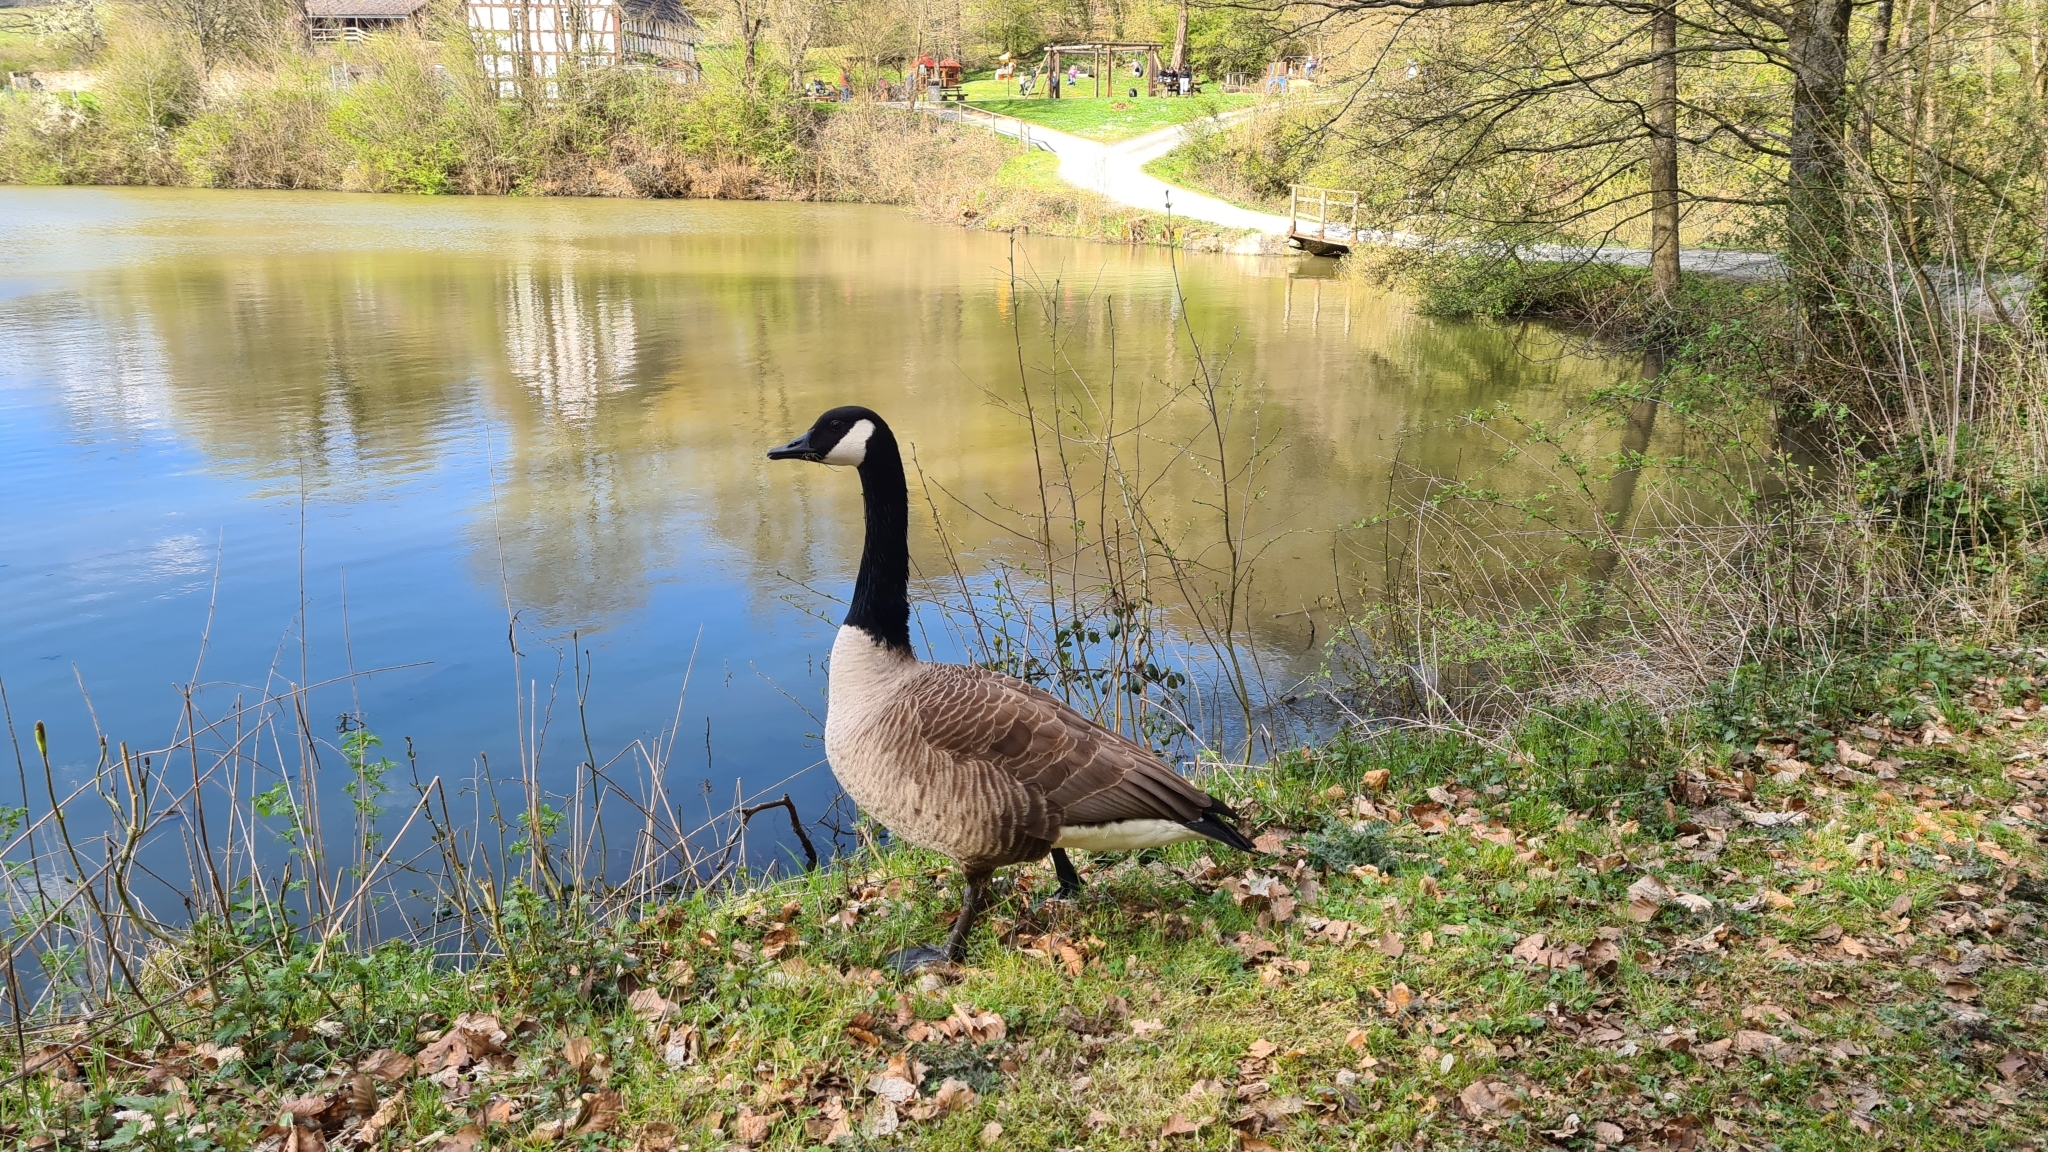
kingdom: Animalia
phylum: Chordata
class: Aves
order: Anseriformes
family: Anatidae
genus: Branta
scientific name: Branta canadensis
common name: Canada goose
